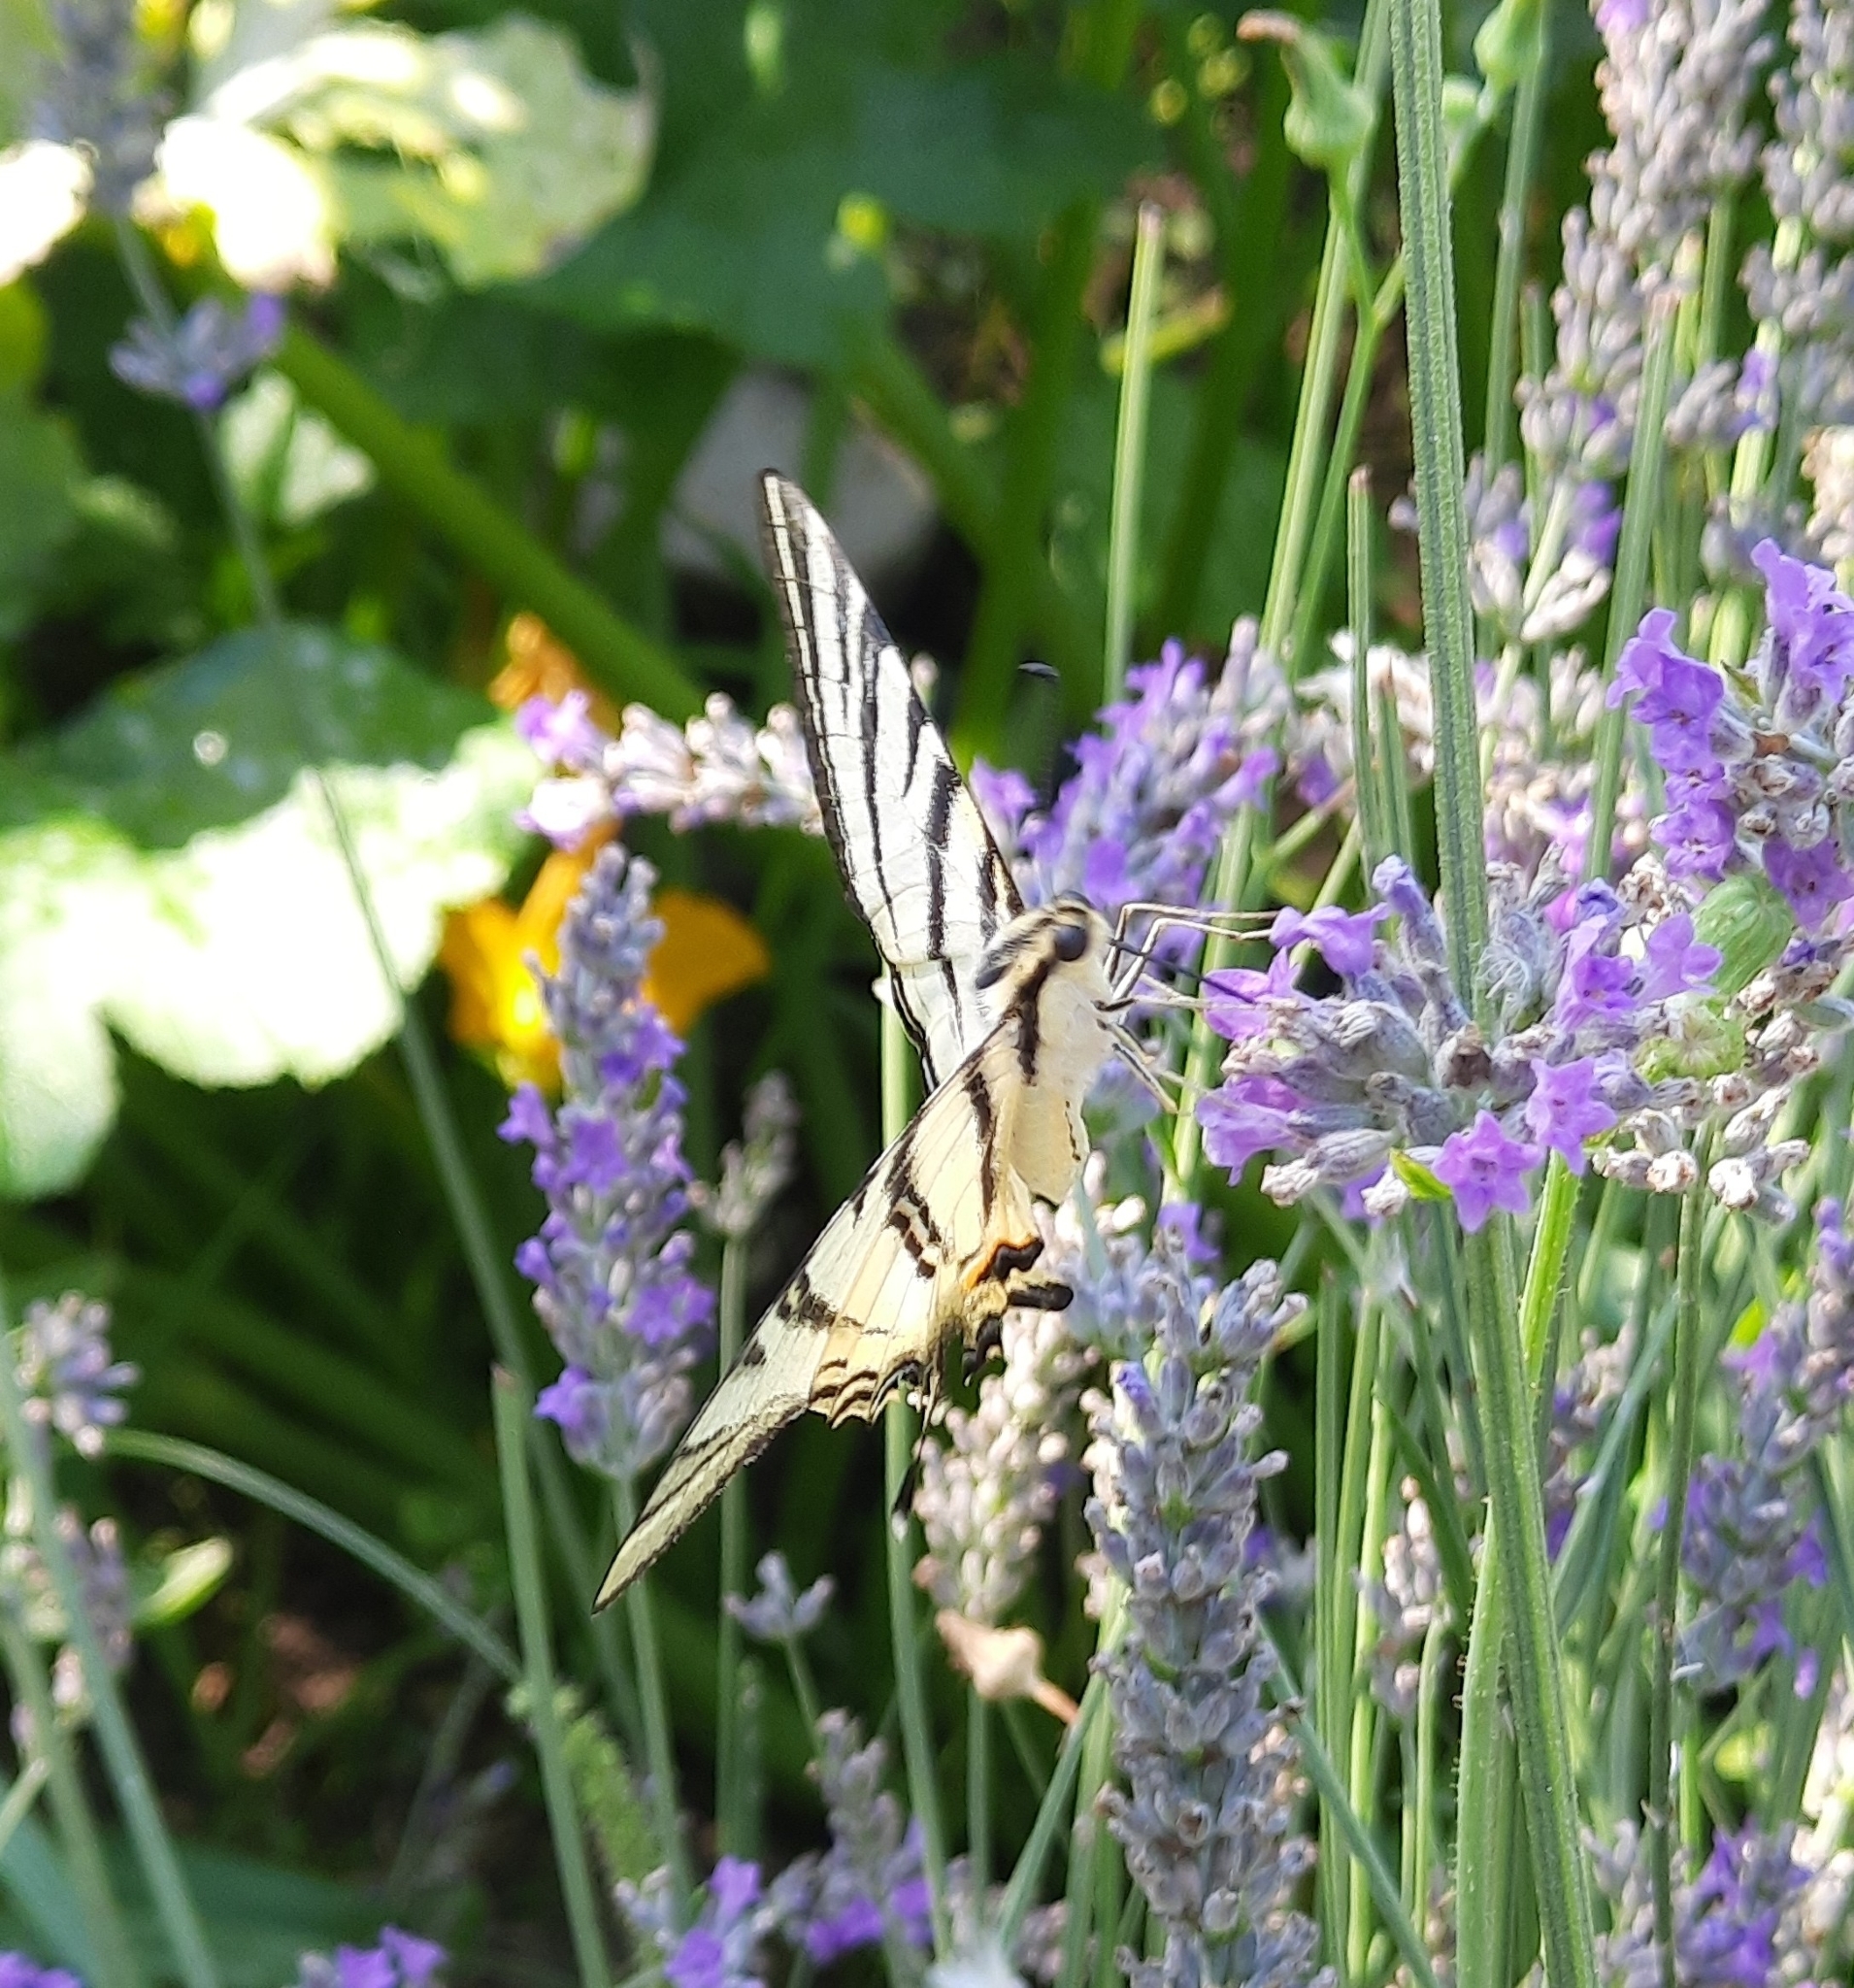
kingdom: Animalia
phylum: Arthropoda
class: Insecta
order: Lepidoptera
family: Papilionidae
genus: Iphiclides
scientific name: Iphiclides podalirius
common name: Scarce swallowtail
